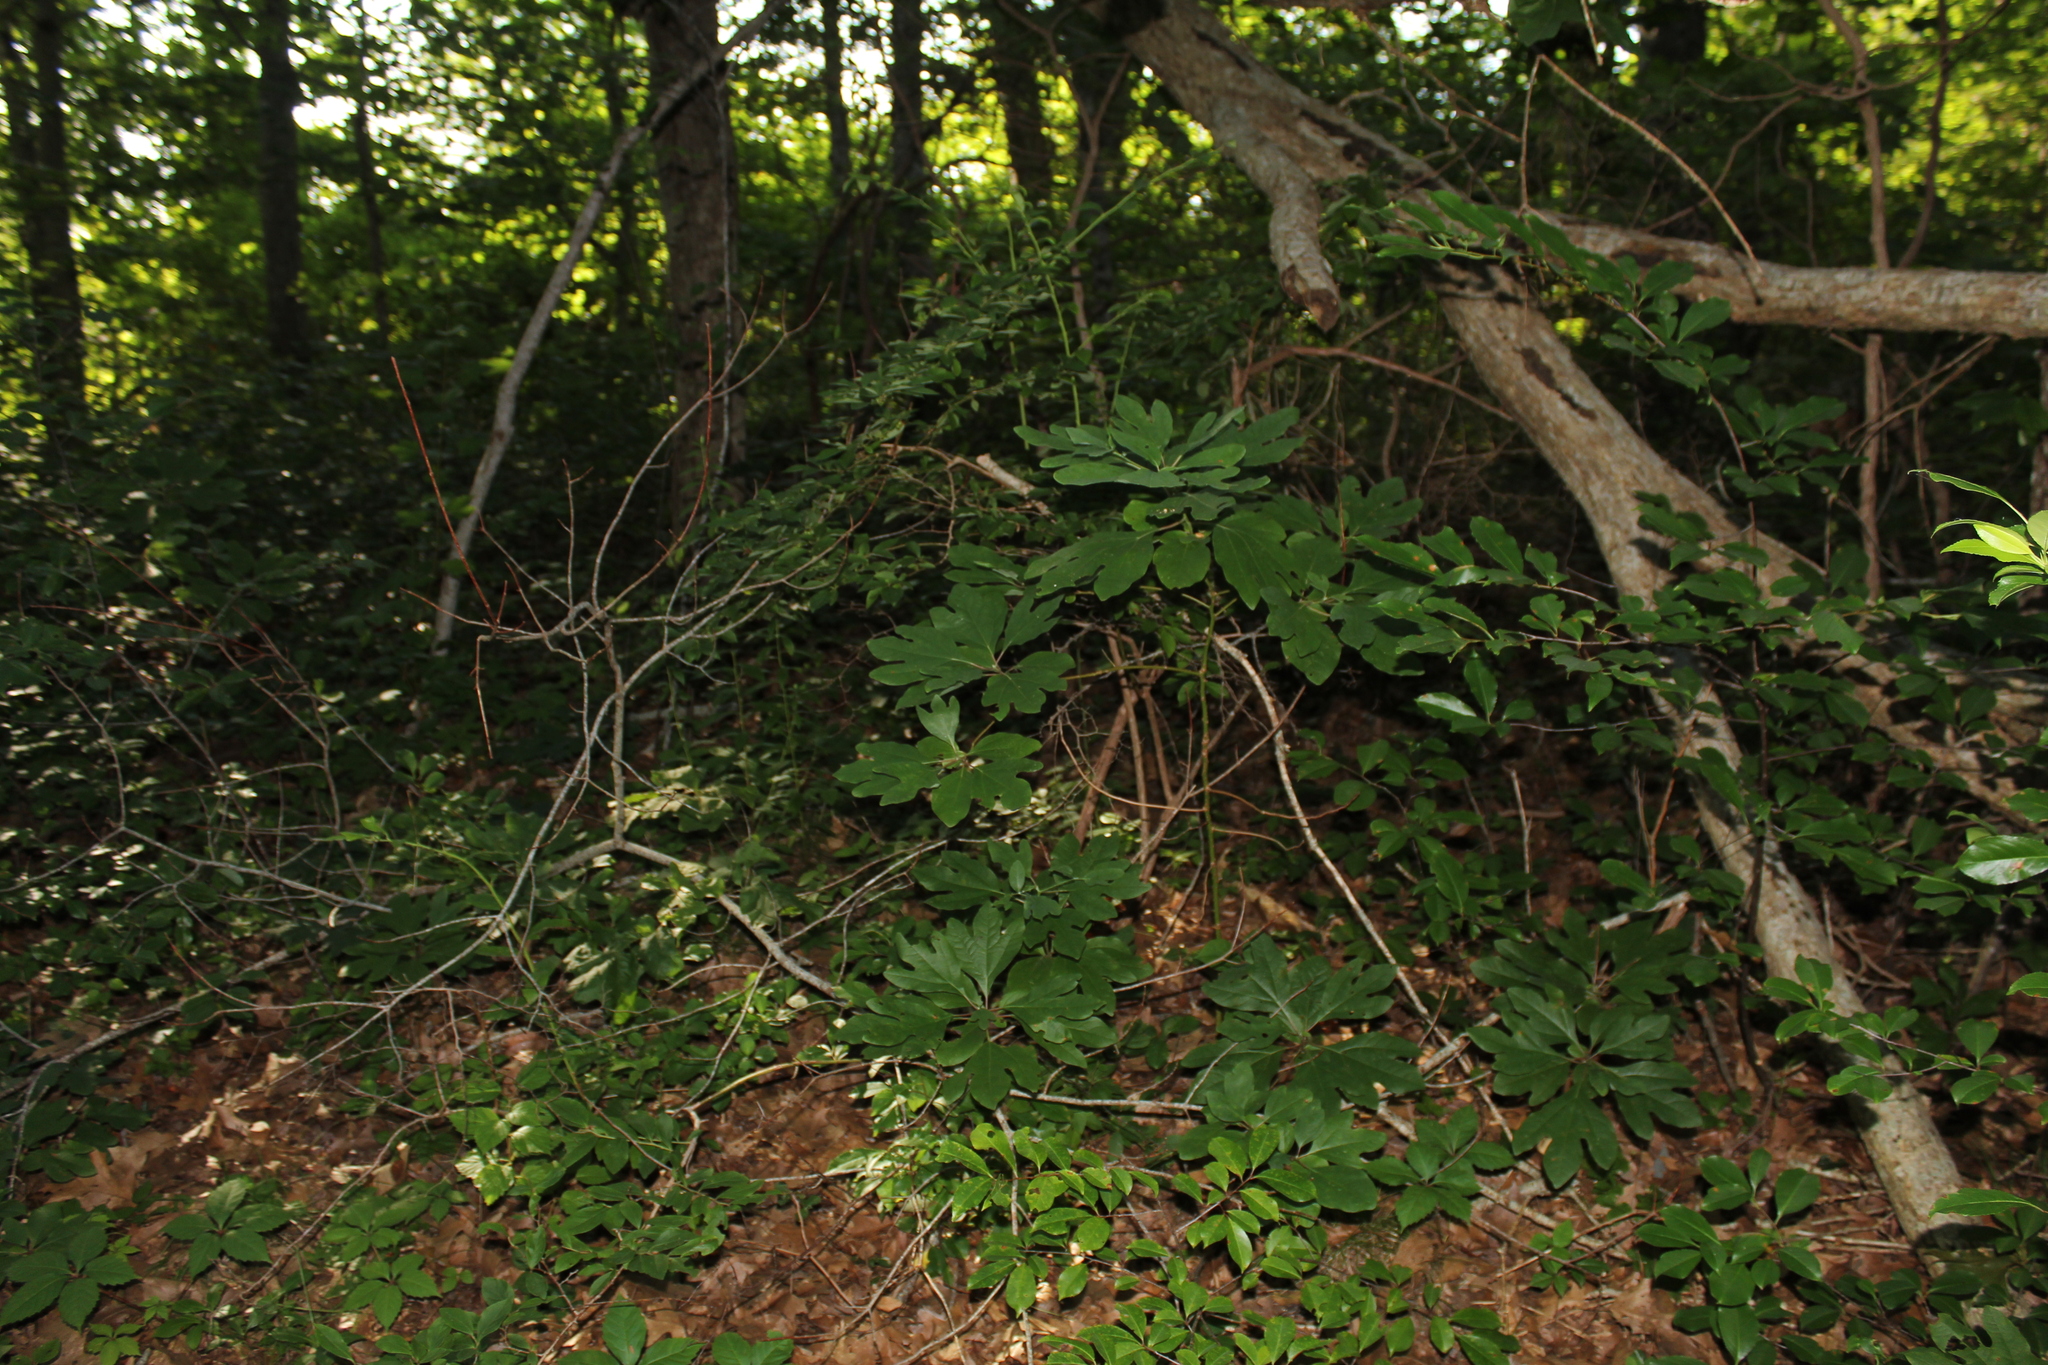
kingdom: Plantae
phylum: Tracheophyta
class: Magnoliopsida
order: Laurales
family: Lauraceae
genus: Sassafras
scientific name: Sassafras albidum
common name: Sassafras
